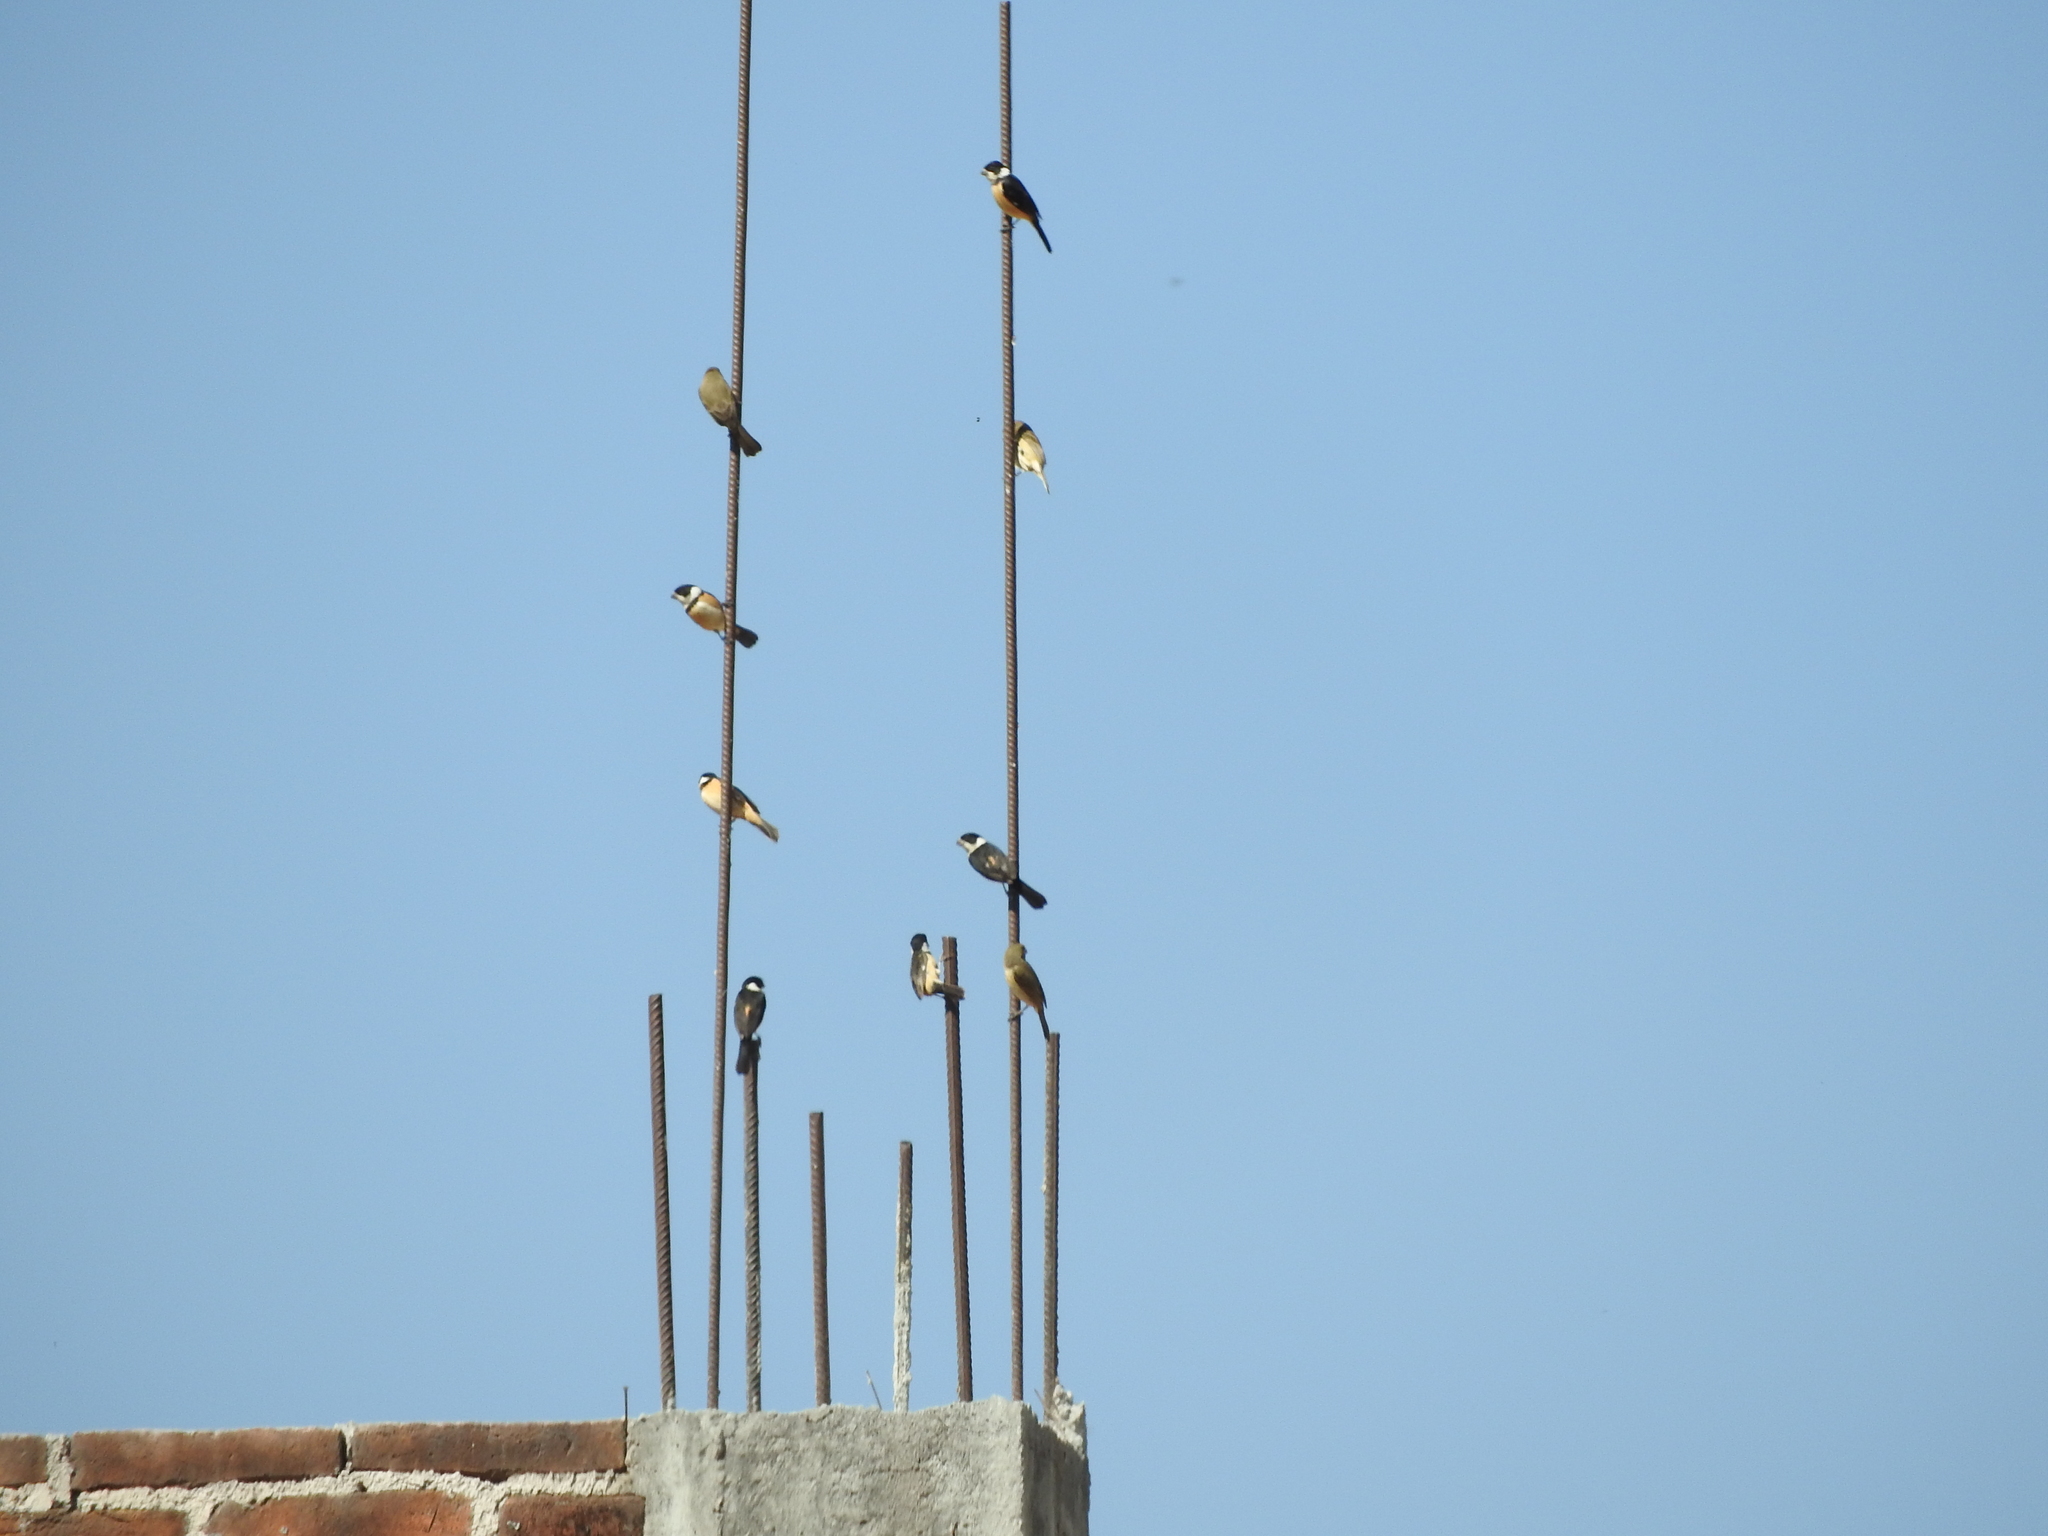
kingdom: Animalia
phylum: Chordata
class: Aves
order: Passeriformes
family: Thraupidae
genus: Sporophila
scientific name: Sporophila torqueola
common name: White-collared seedeater
